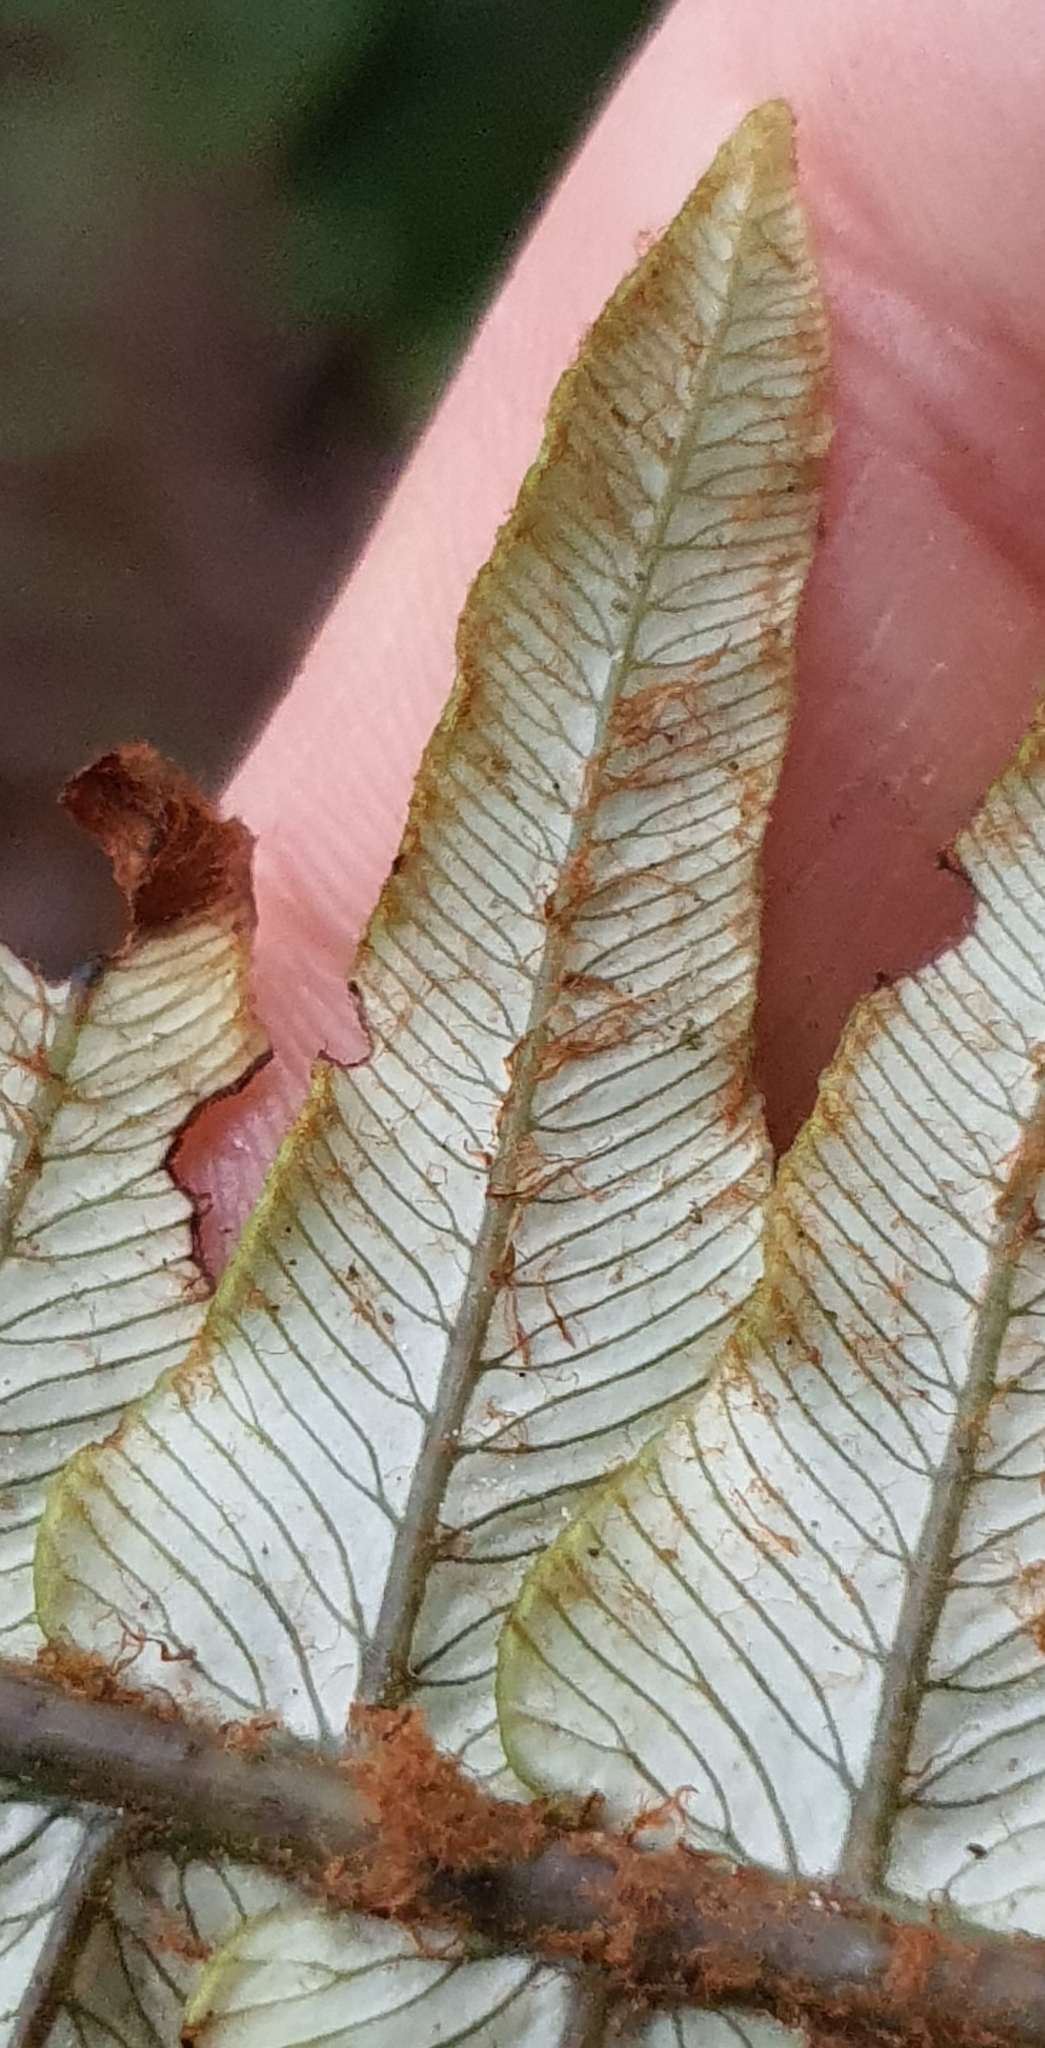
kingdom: Plantae
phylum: Tracheophyta
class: Polypodiopsida
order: Polypodiales
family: Blechnaceae
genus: Lomaria
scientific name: Lomaria discolor
